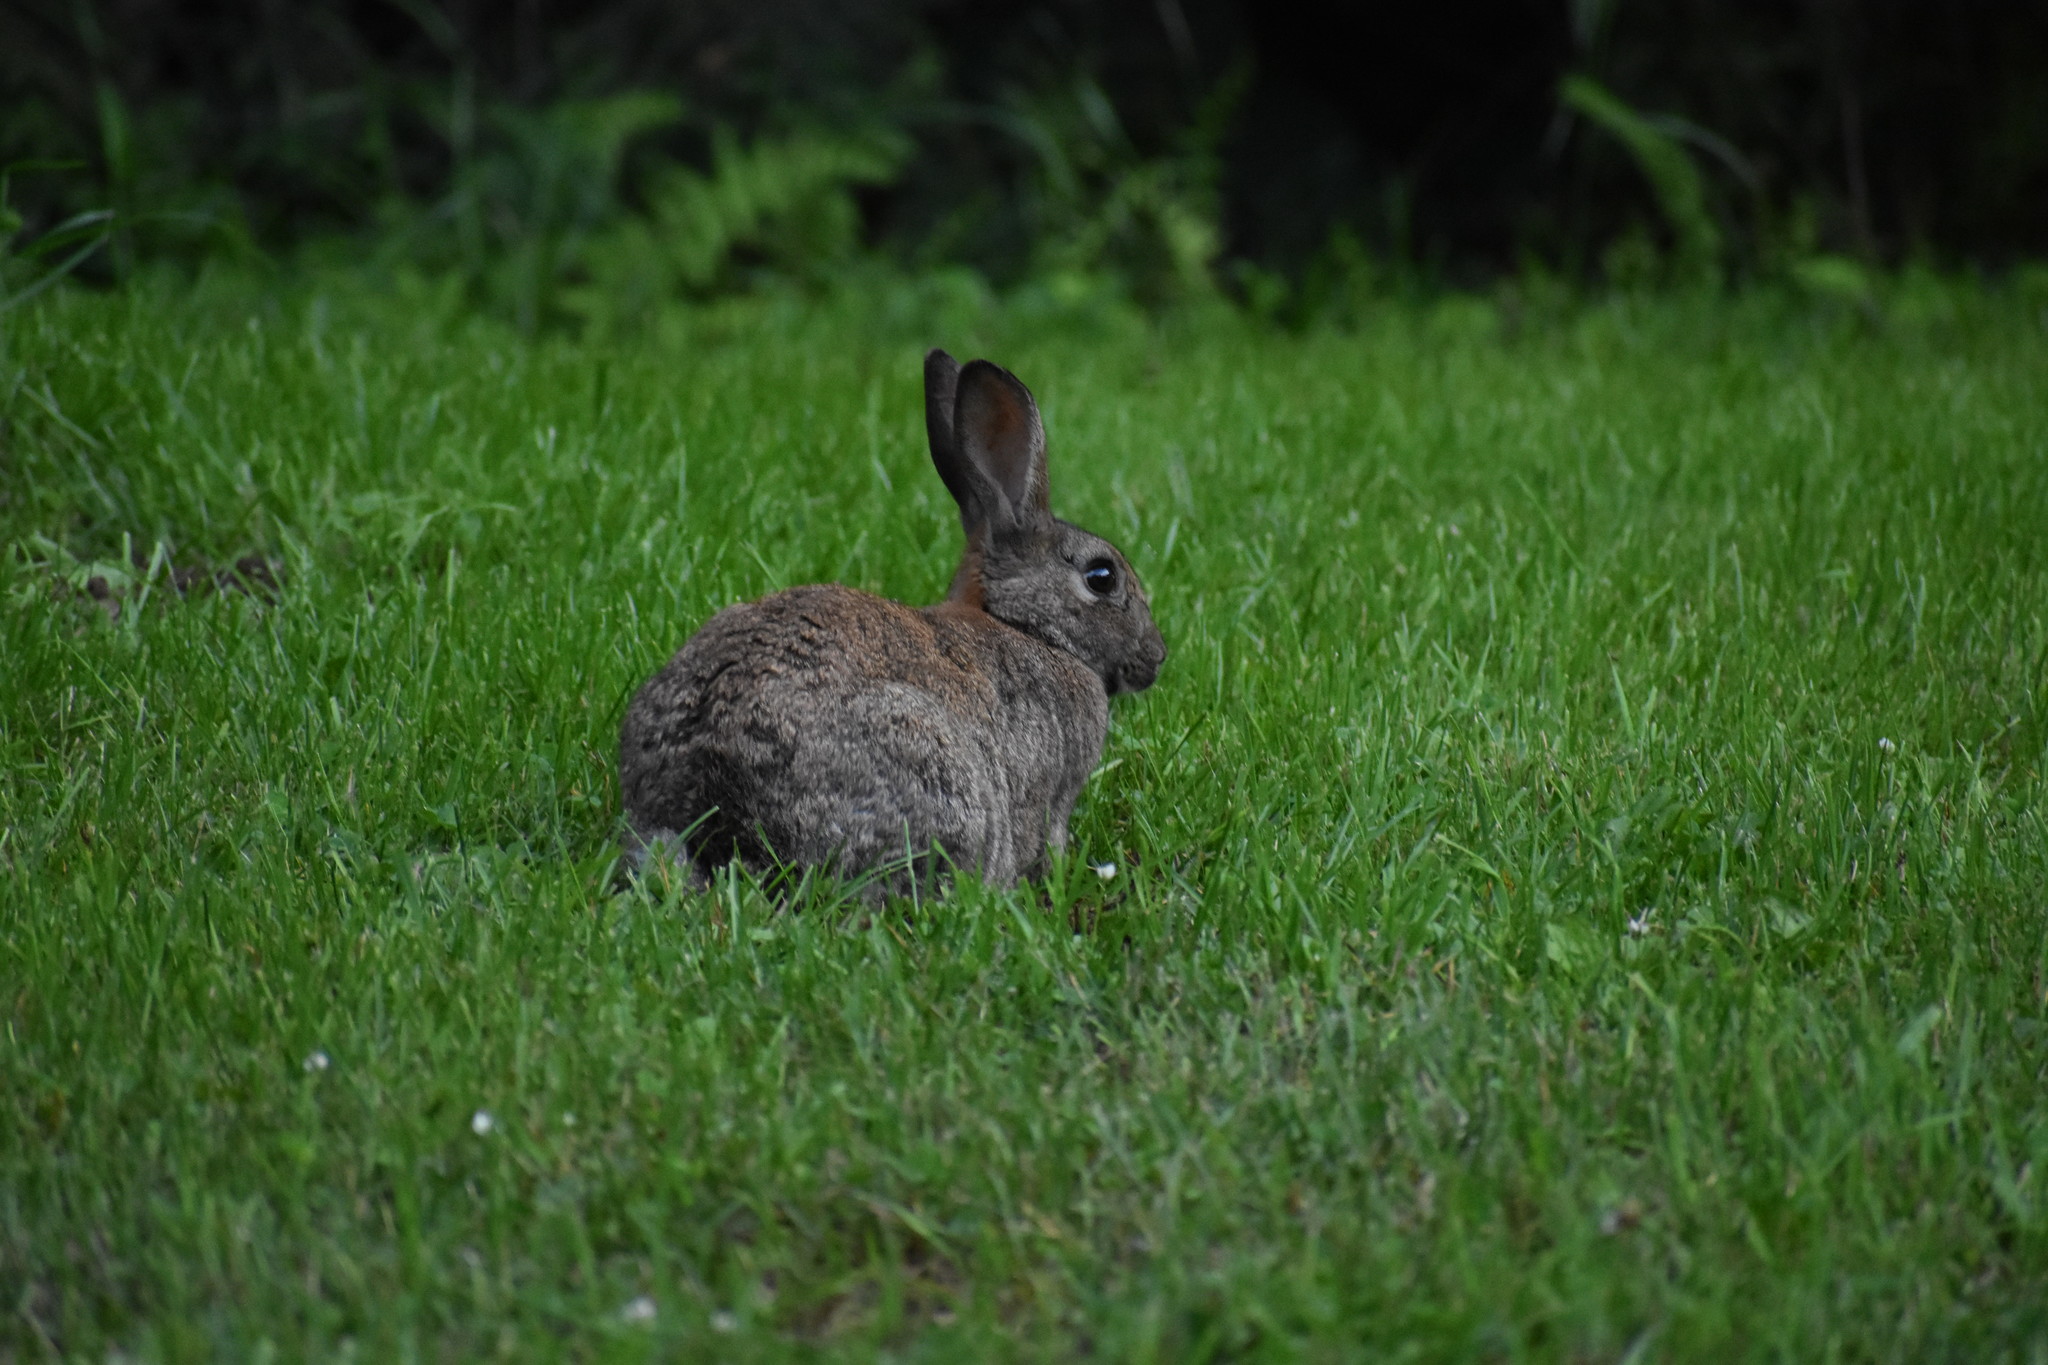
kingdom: Animalia
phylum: Chordata
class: Mammalia
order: Lagomorpha
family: Leporidae
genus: Oryctolagus
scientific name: Oryctolagus cuniculus
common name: European rabbit
